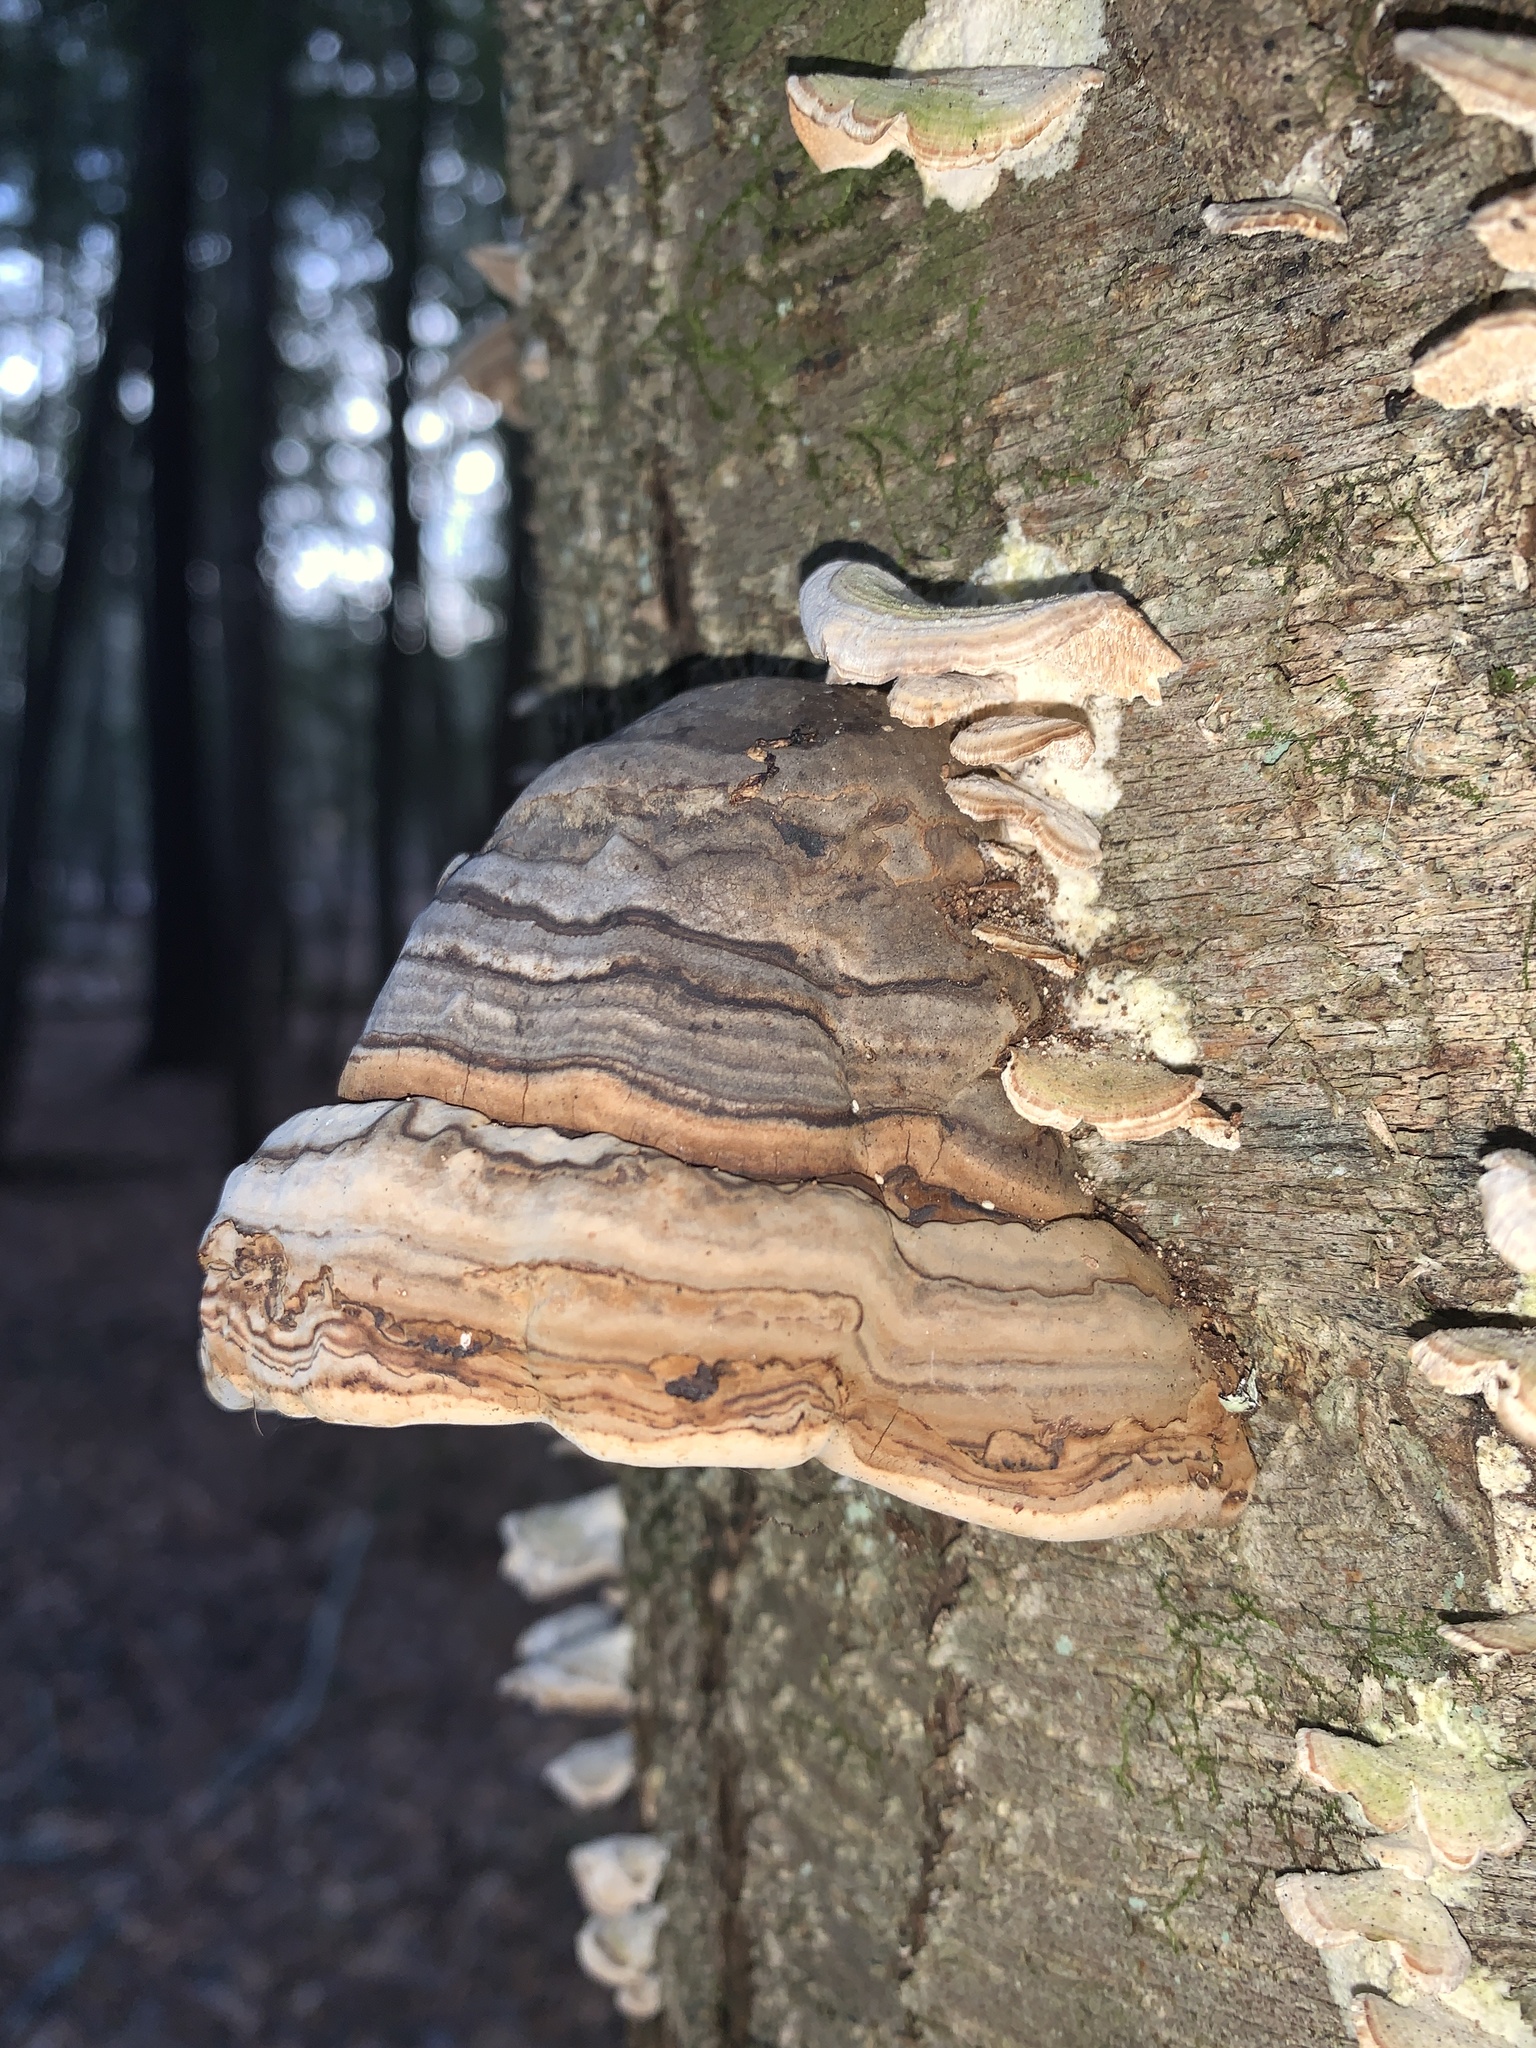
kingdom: Fungi
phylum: Basidiomycota
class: Agaricomycetes
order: Polyporales
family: Polyporaceae
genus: Fomes
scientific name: Fomes fomentarius
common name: Hoof fungus
